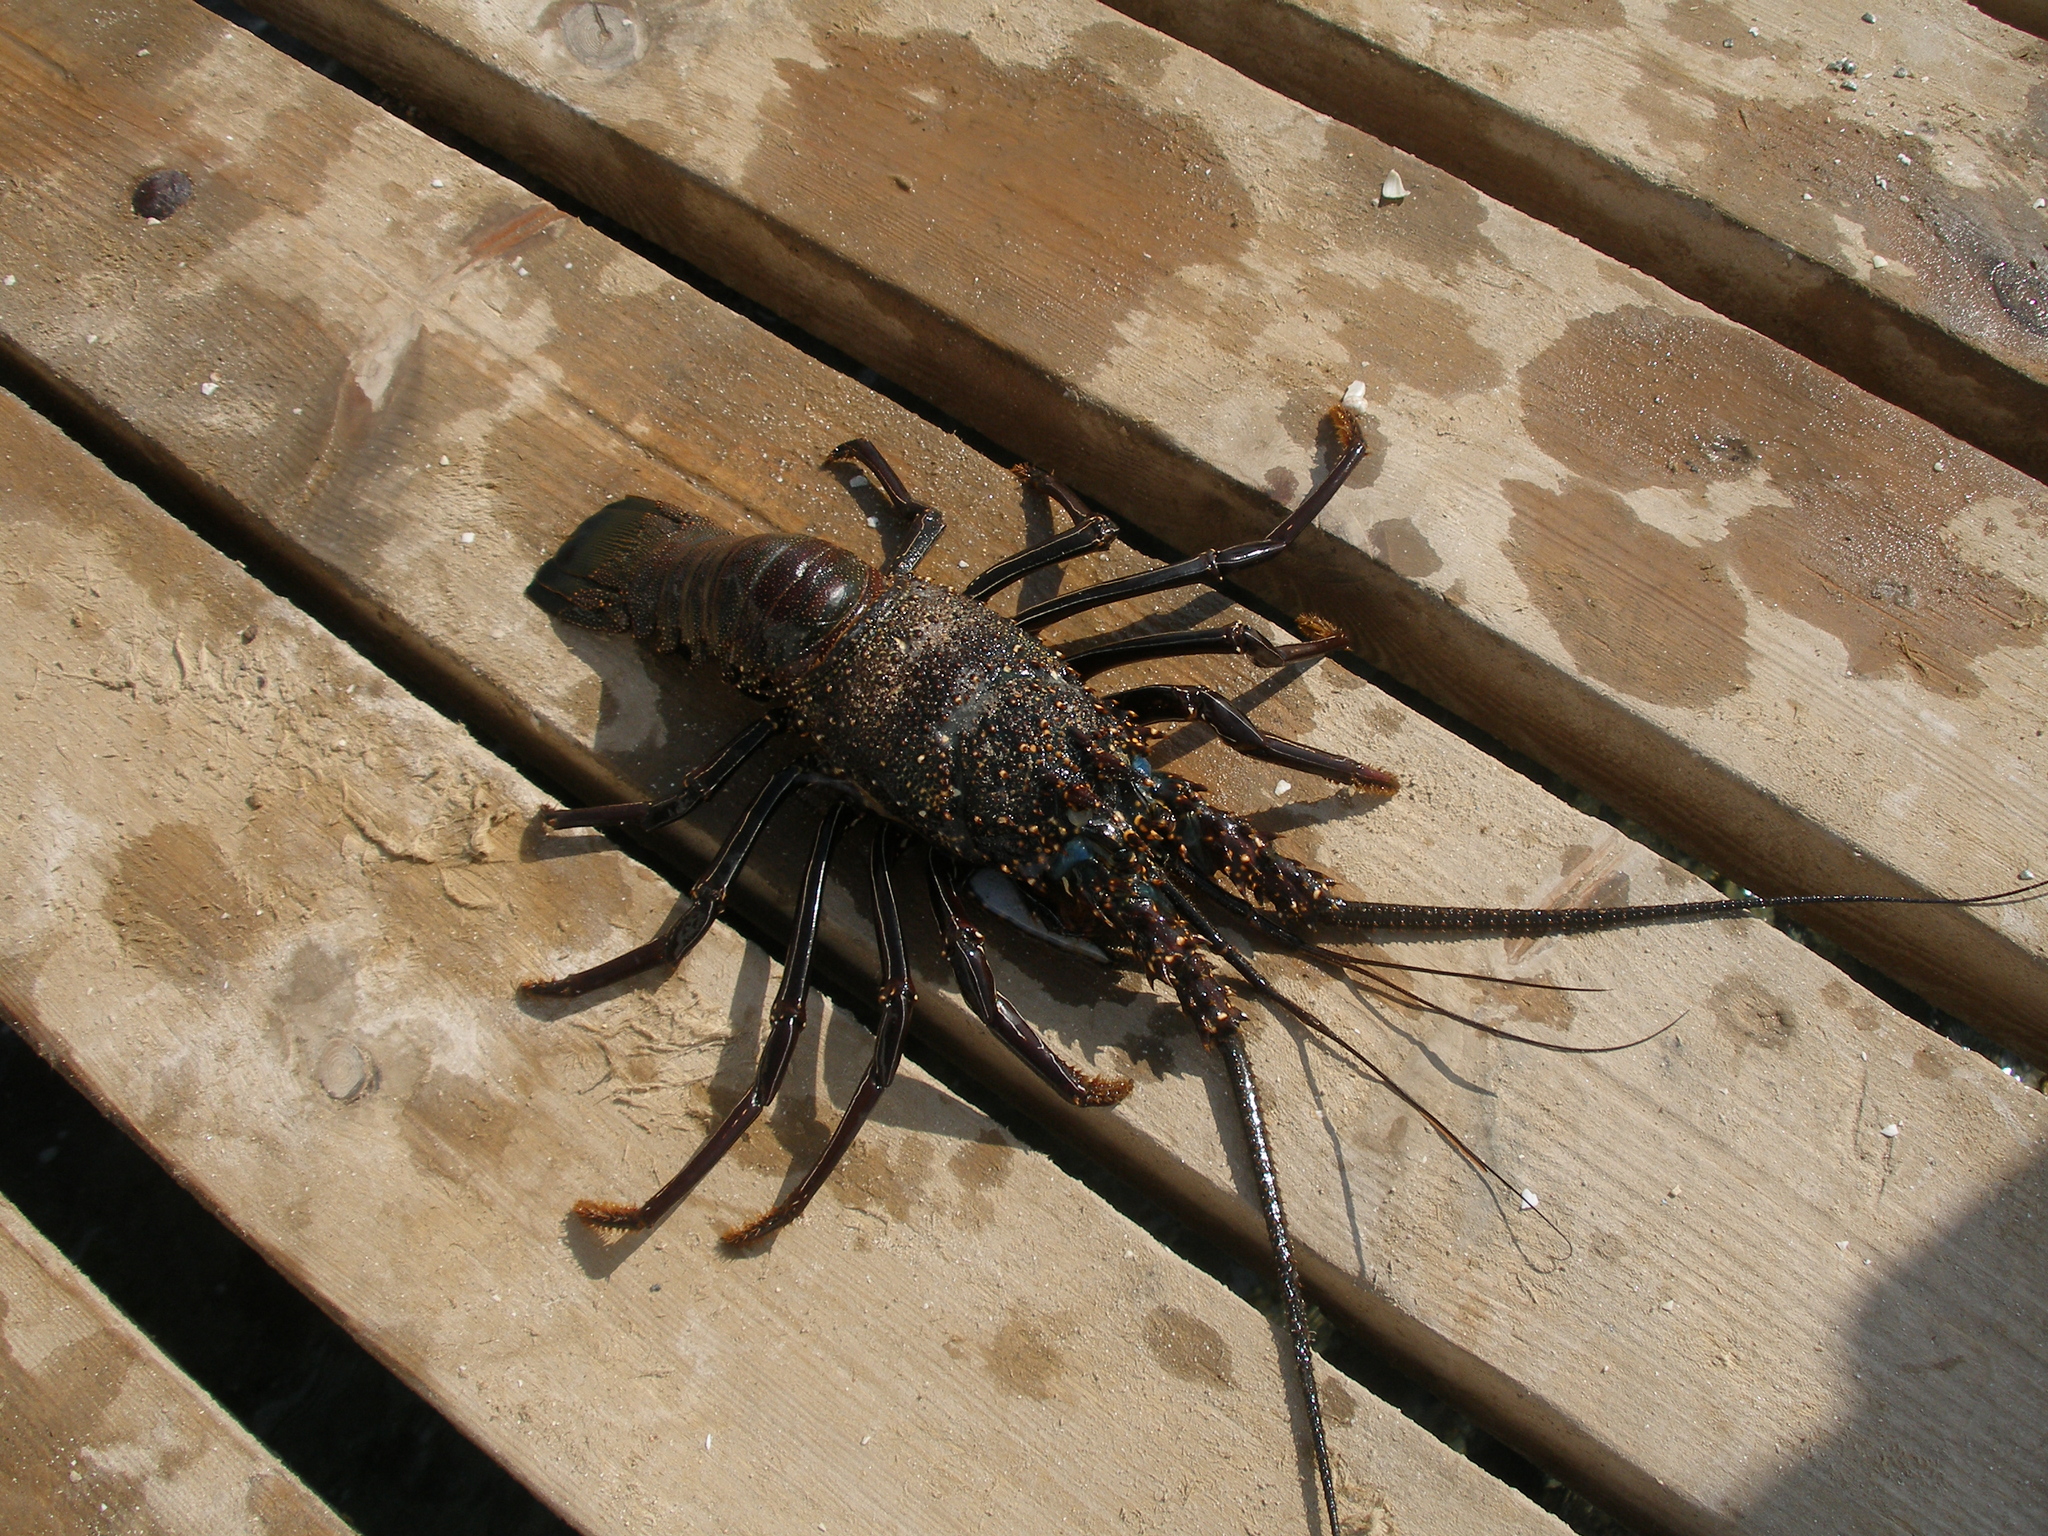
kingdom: Animalia
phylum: Arthropoda
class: Malacostraca
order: Decapoda
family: Palinuridae
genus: Panulirus
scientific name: Panulirus penicillatus
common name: Pronghorn spiny lobster
